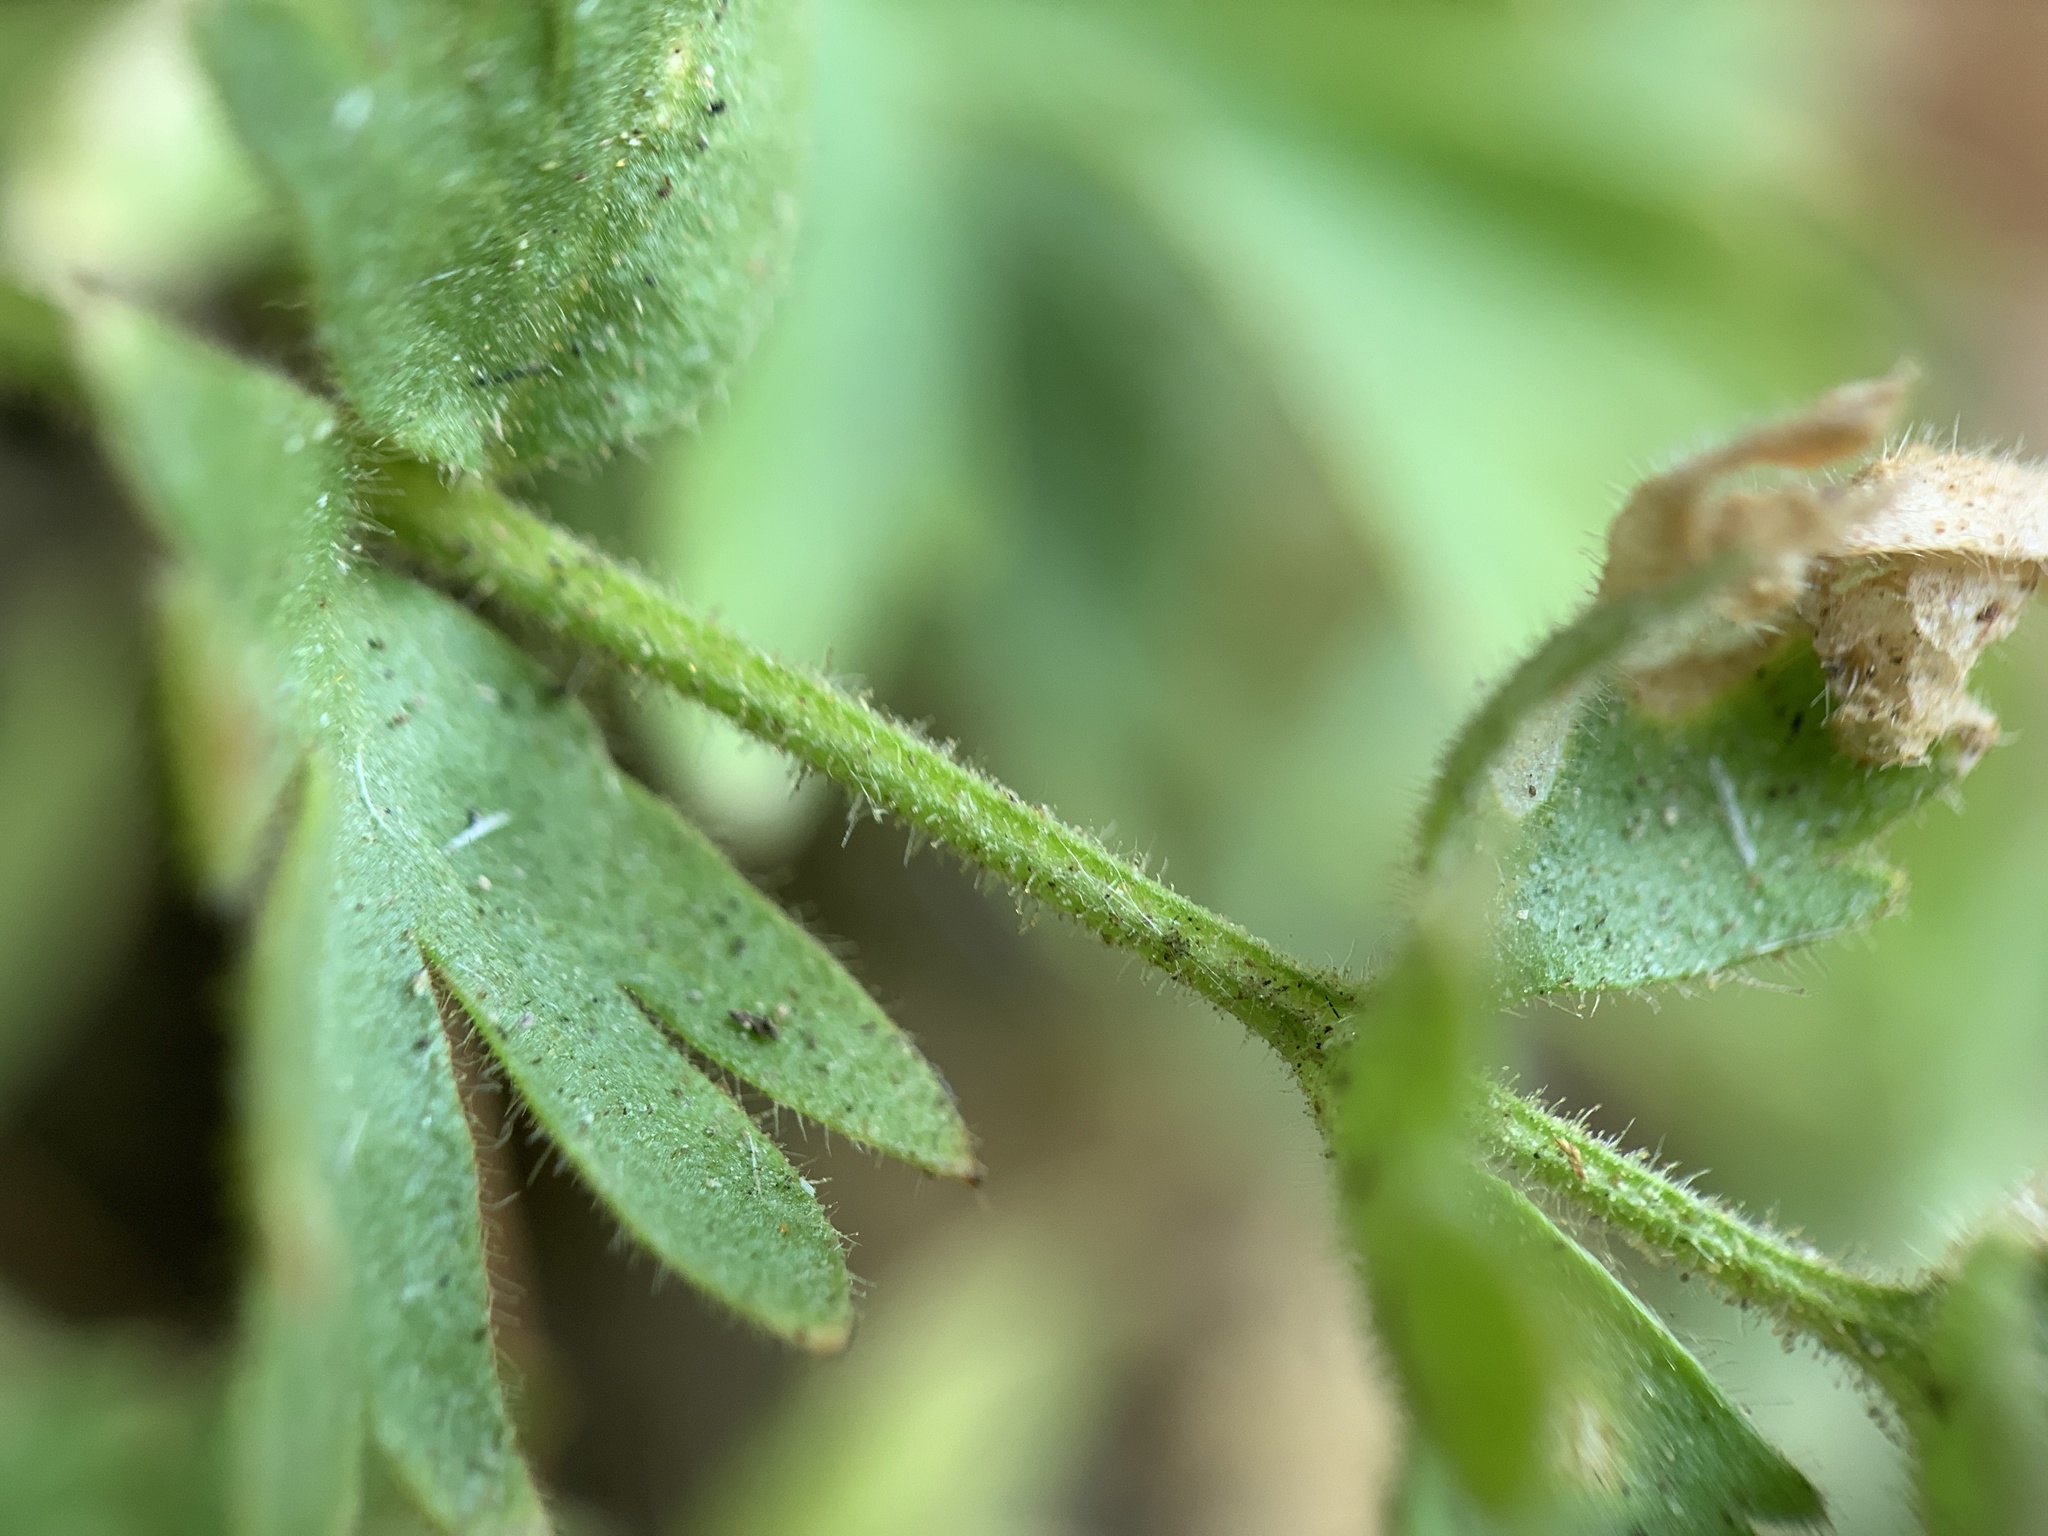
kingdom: Plantae
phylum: Tracheophyta
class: Magnoliopsida
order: Rosales
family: Rosaceae
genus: Potentilla
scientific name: Potentilla baileyi
